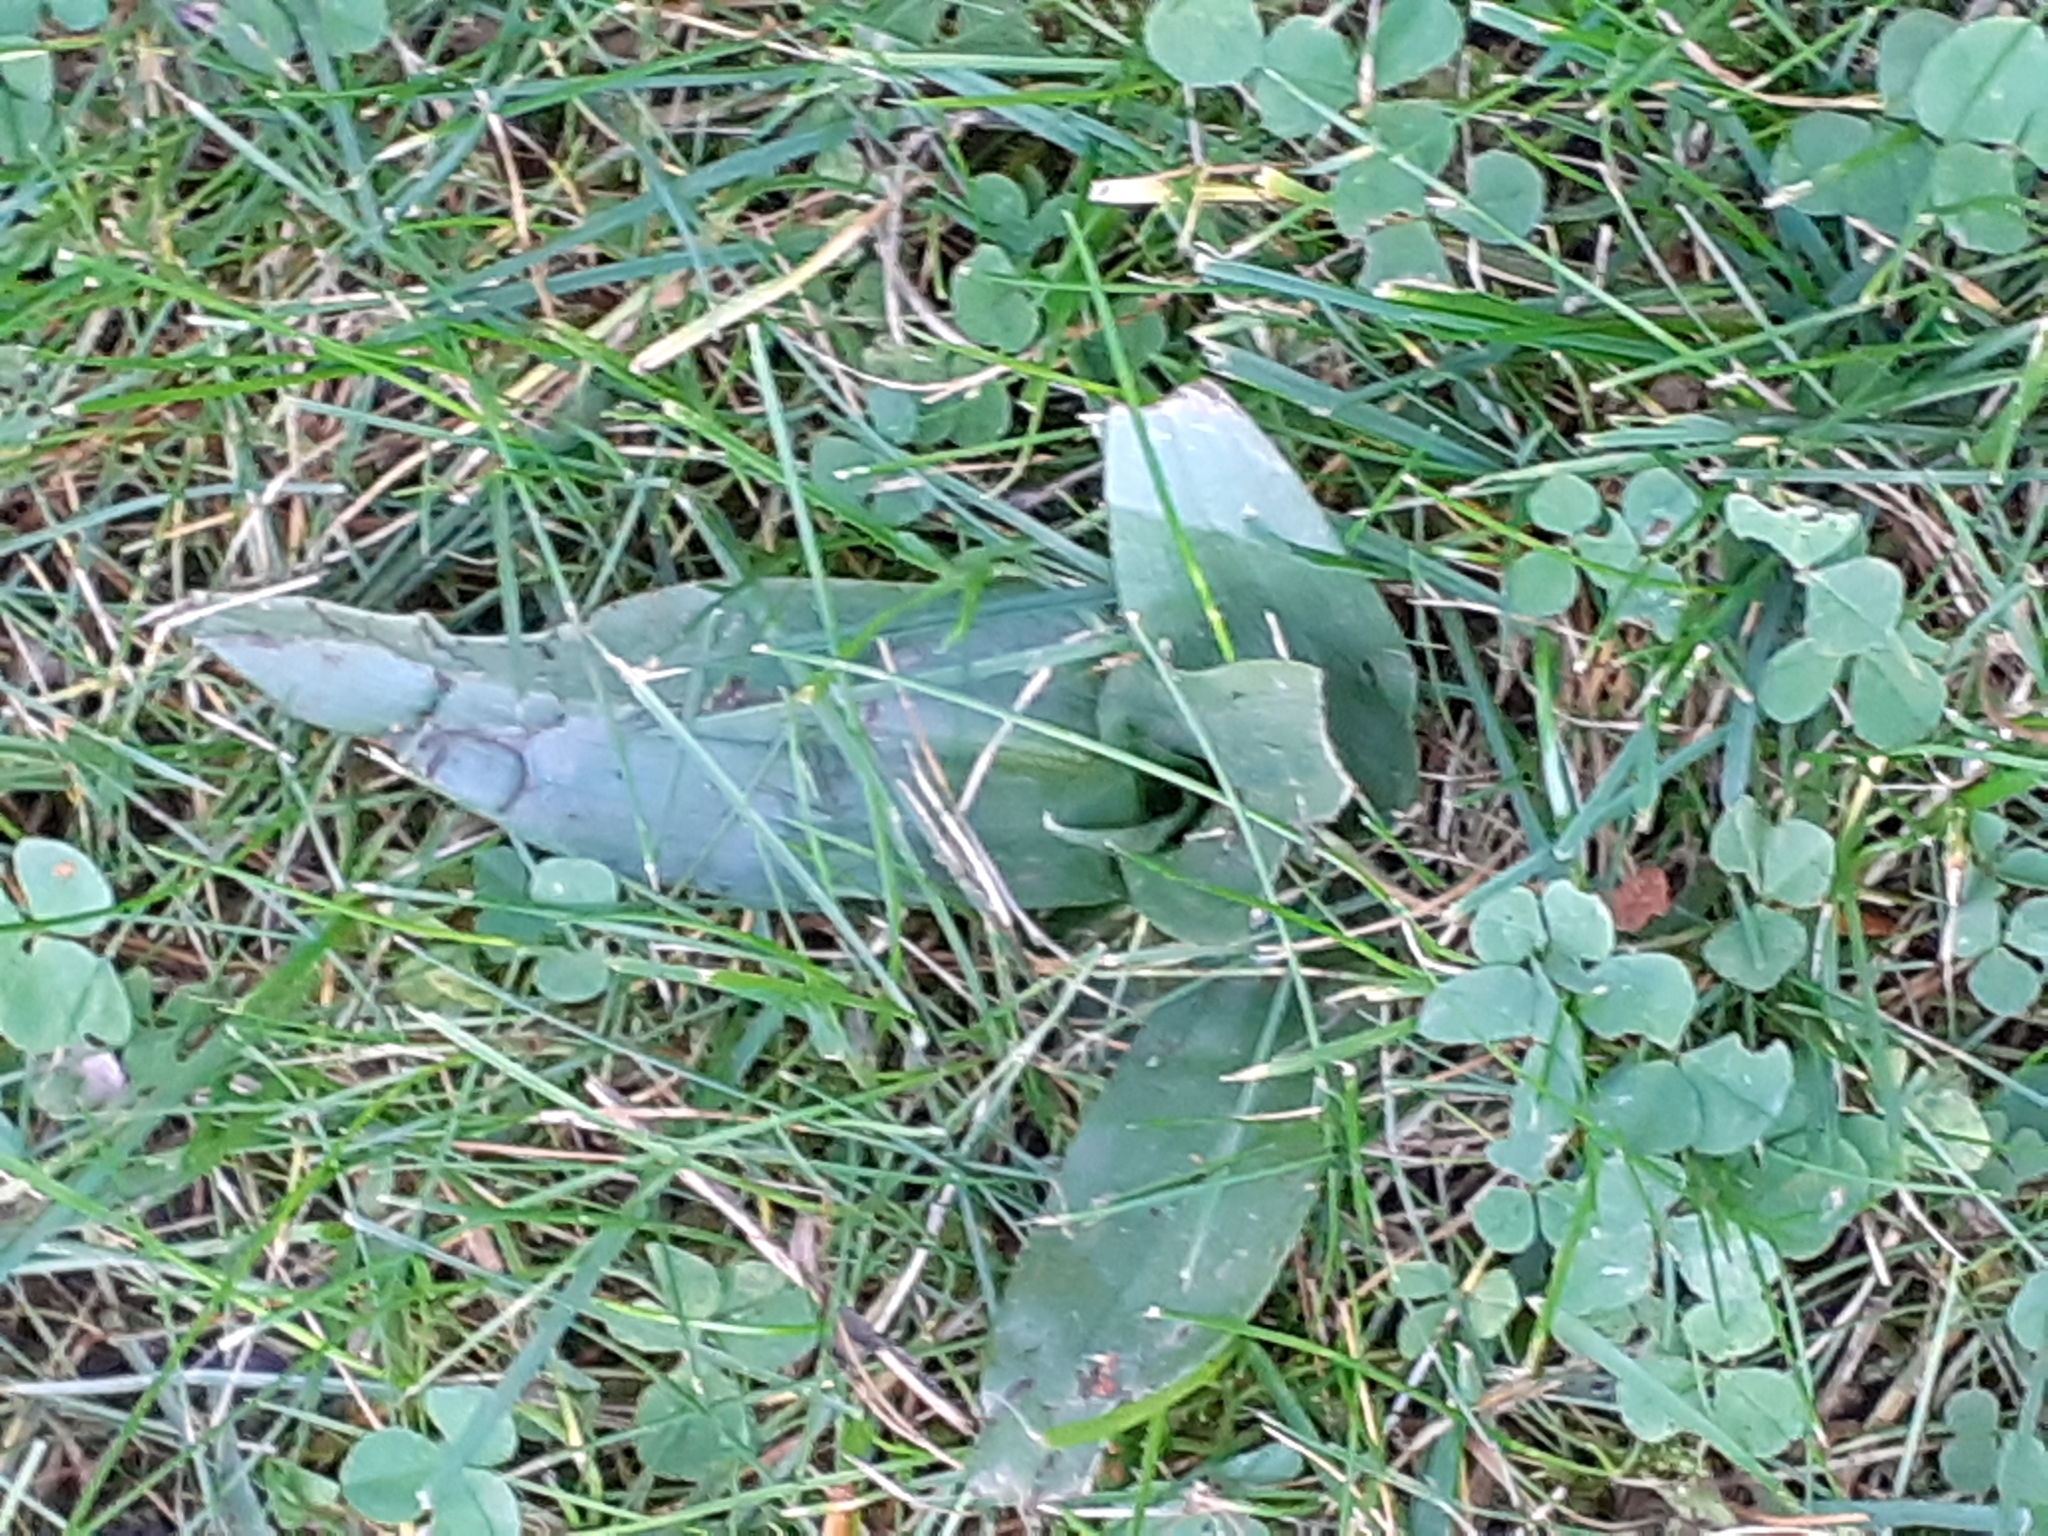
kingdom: Plantae
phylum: Tracheophyta
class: Liliopsida
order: Asparagales
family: Orchidaceae
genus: Ophrys
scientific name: Ophrys apifera
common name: Bee orchid
